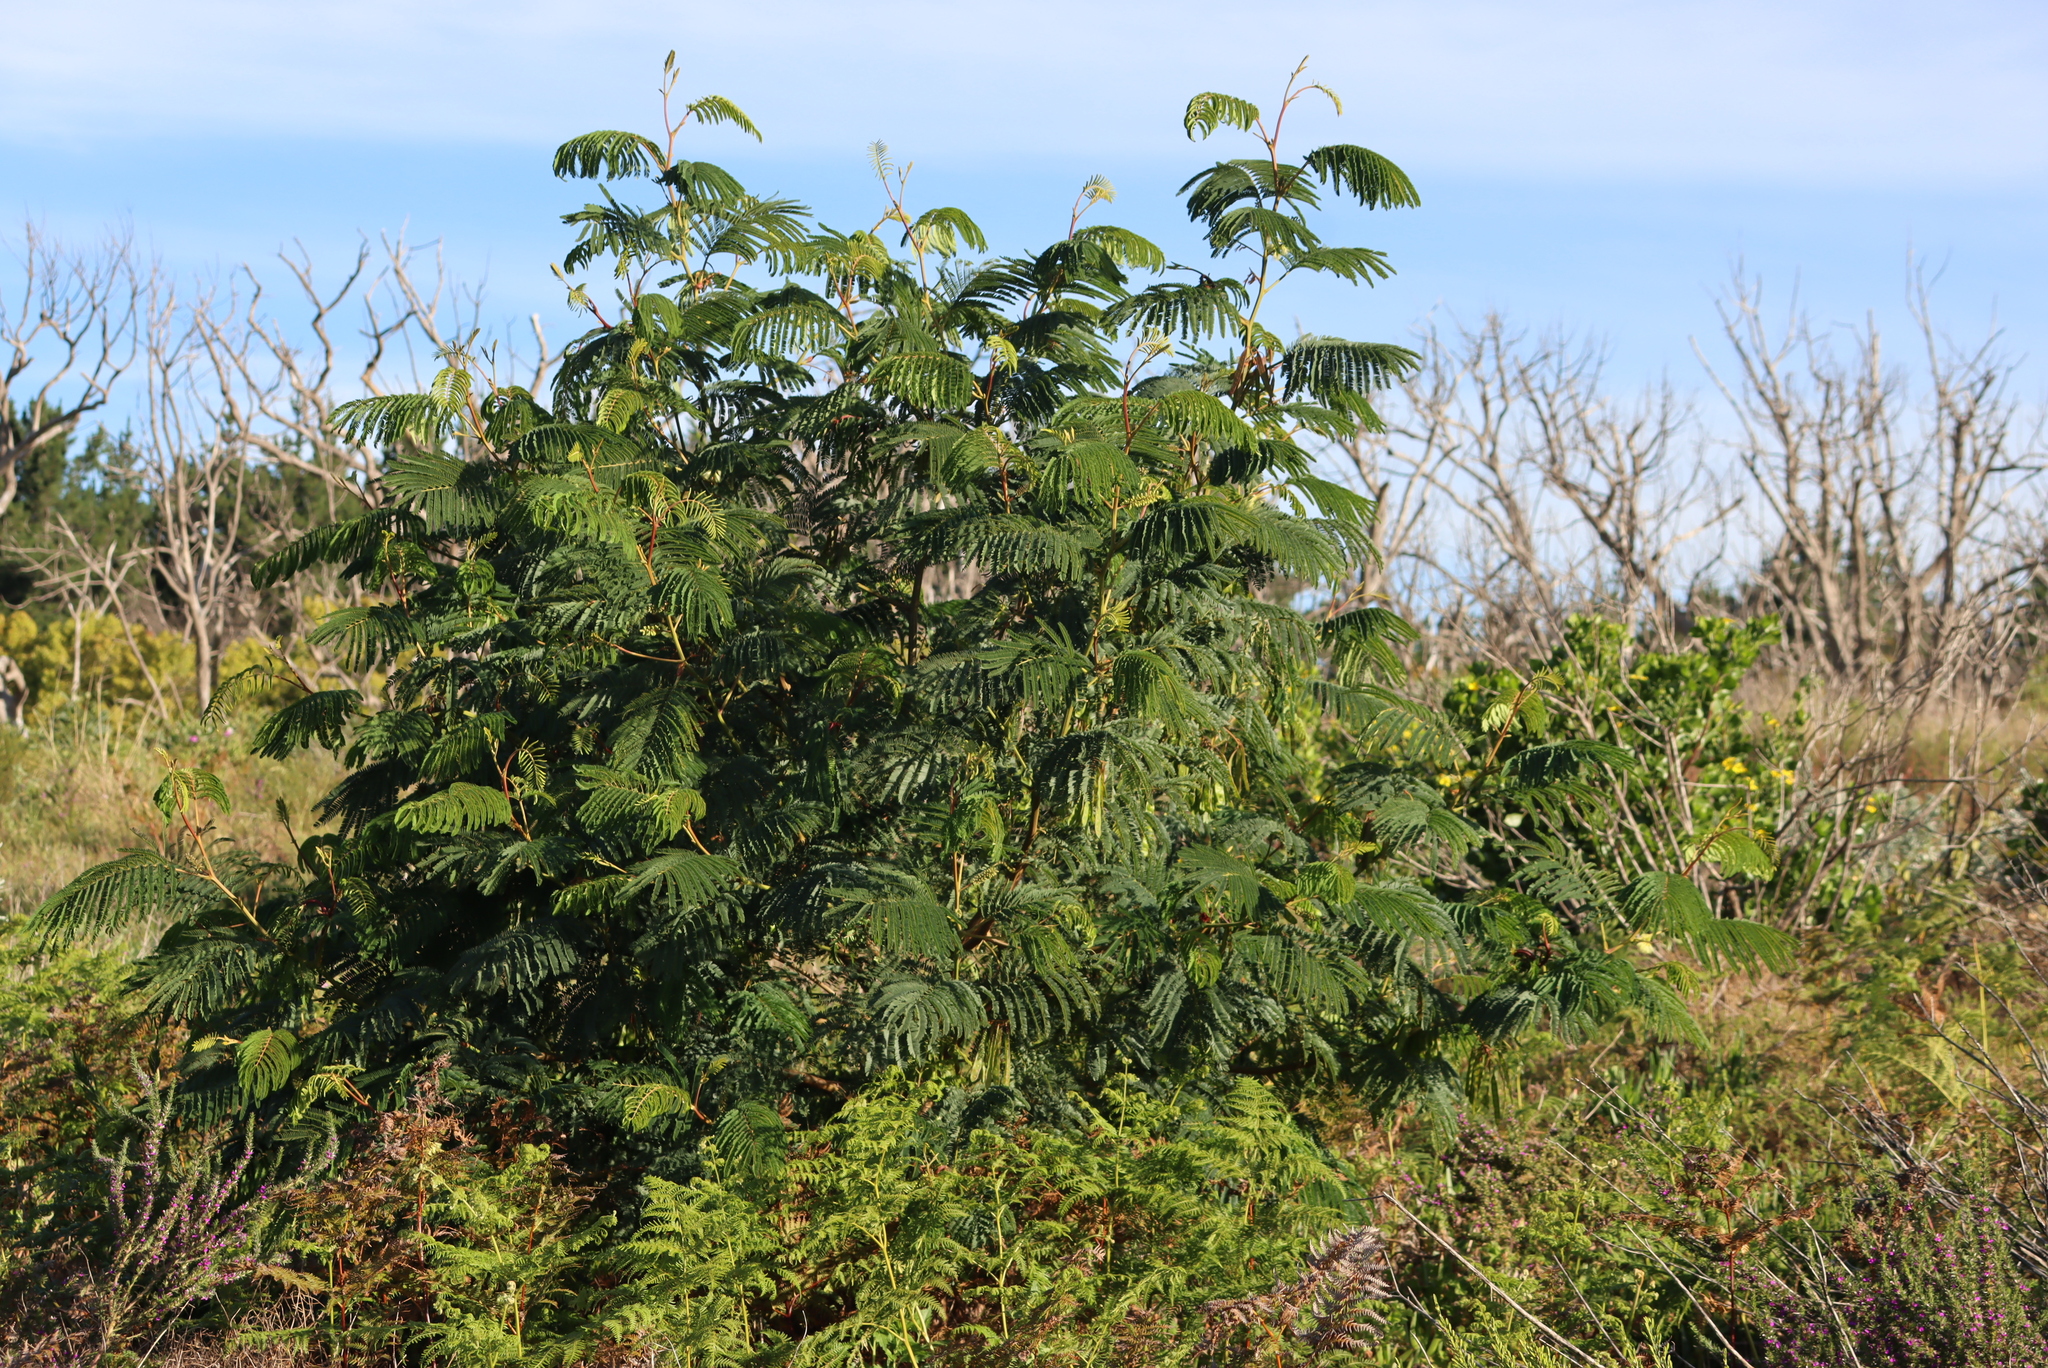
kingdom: Plantae
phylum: Tracheophyta
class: Magnoliopsida
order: Fabales
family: Fabaceae
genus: Paraserianthes
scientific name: Paraserianthes lophantha
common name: Plume albizia
